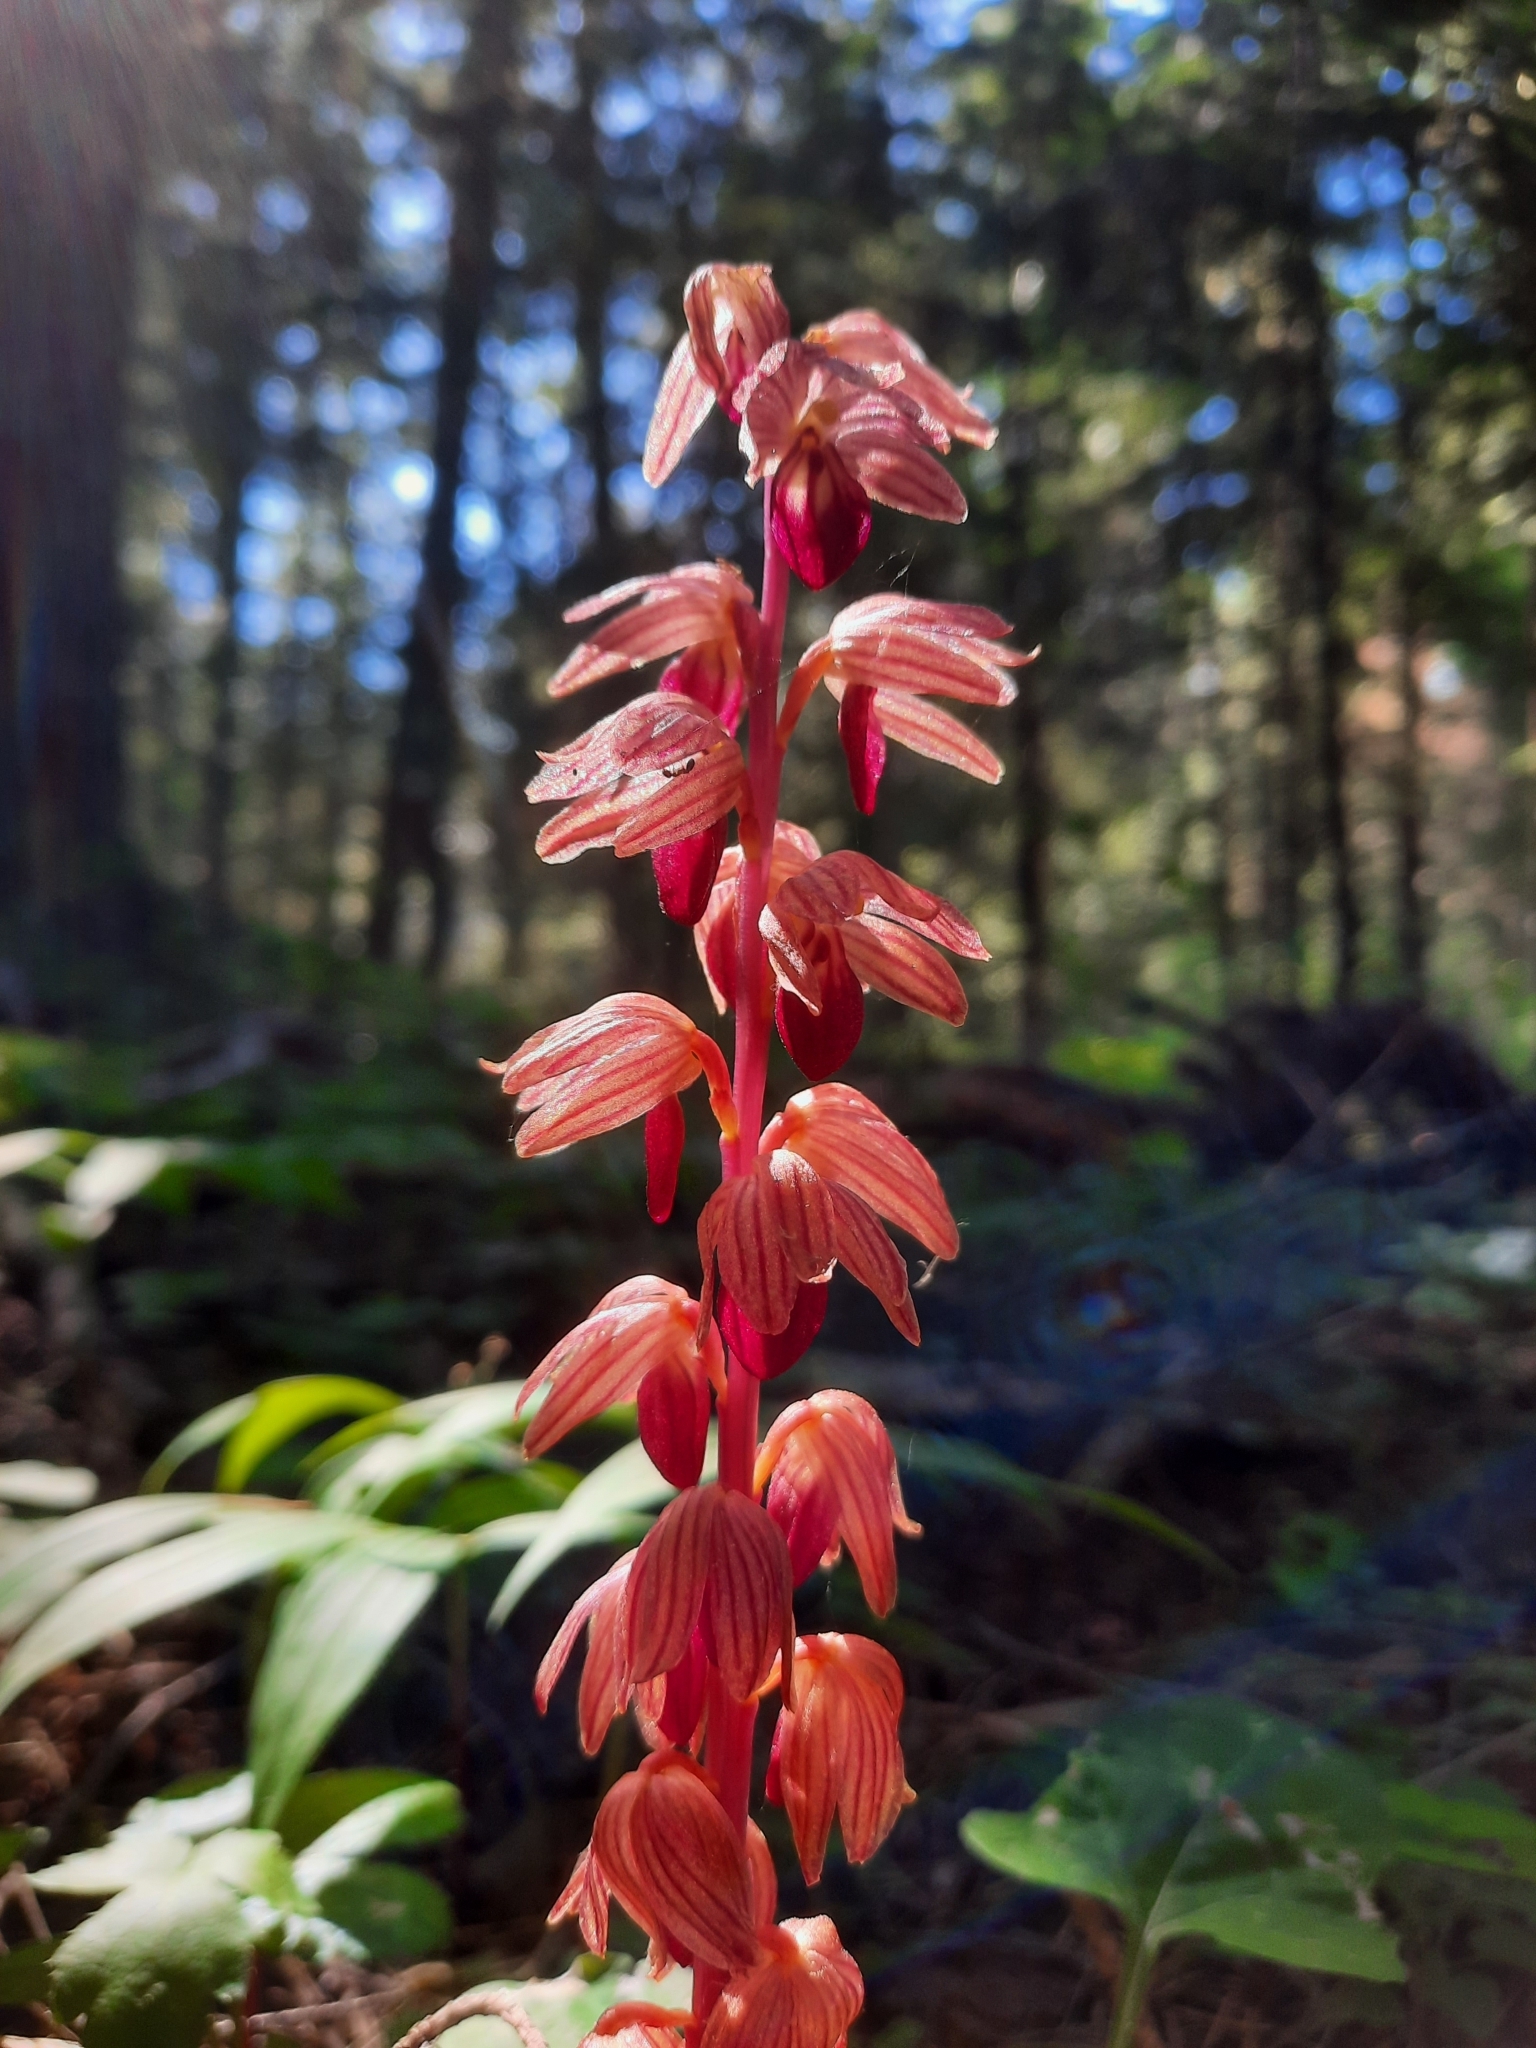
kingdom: Plantae
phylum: Tracheophyta
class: Liliopsida
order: Asparagales
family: Orchidaceae
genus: Corallorhiza
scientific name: Corallorhiza striata
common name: Hooded coralroot
